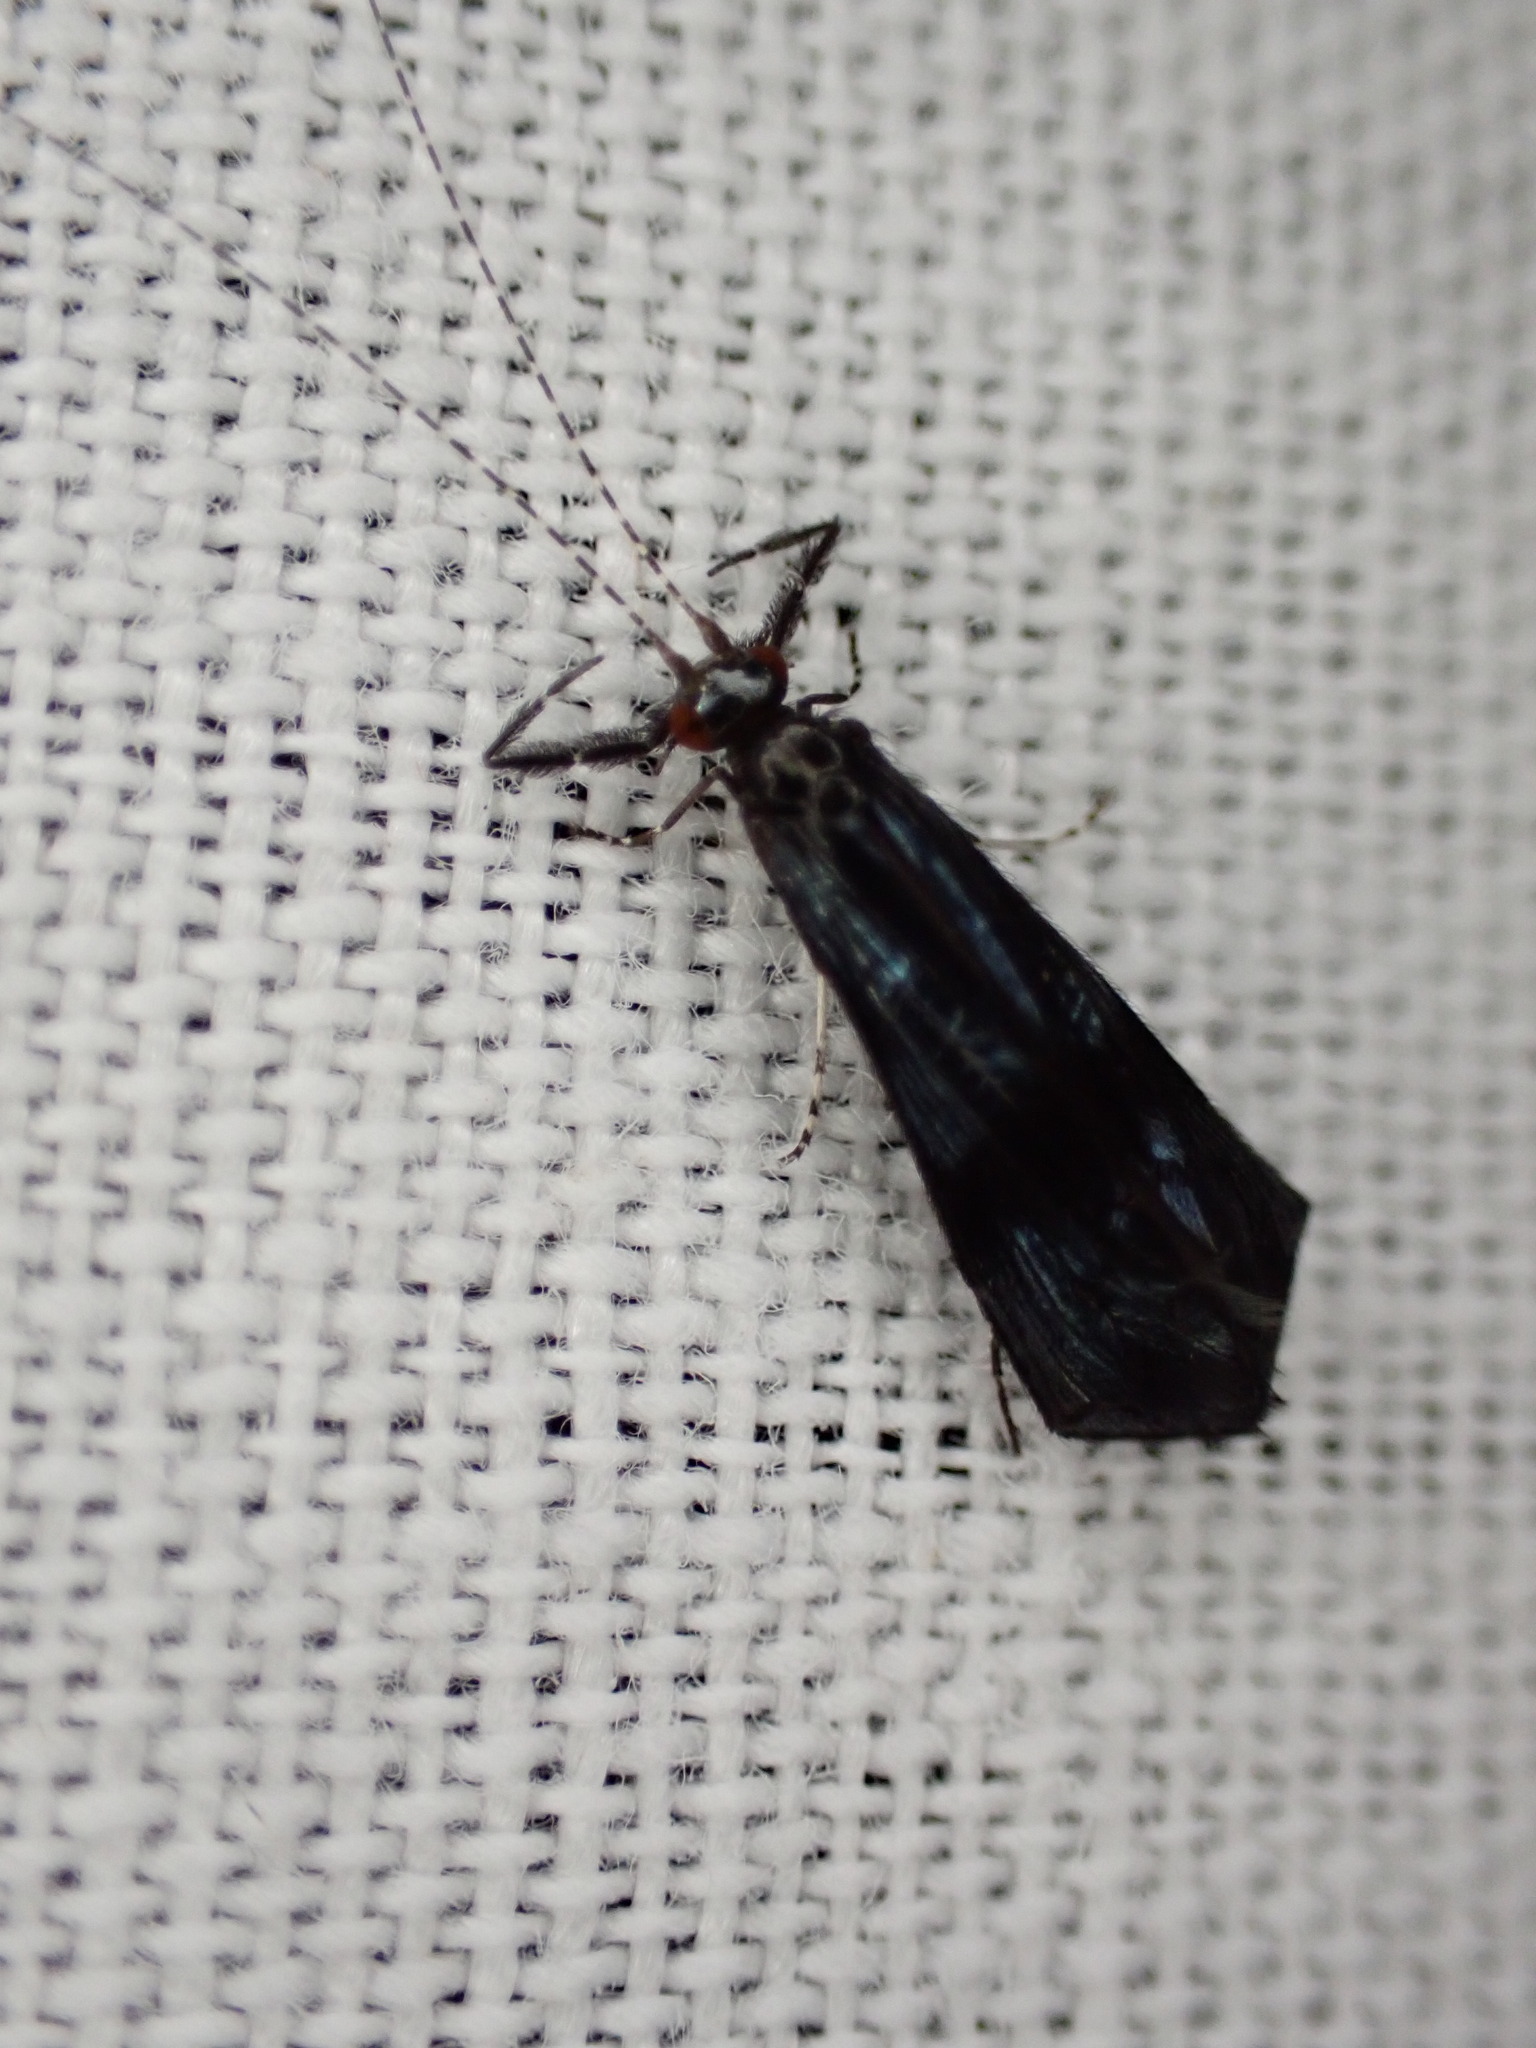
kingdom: Animalia
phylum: Arthropoda
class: Insecta
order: Trichoptera
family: Leptoceridae
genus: Mystacides
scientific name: Mystacides azureus
